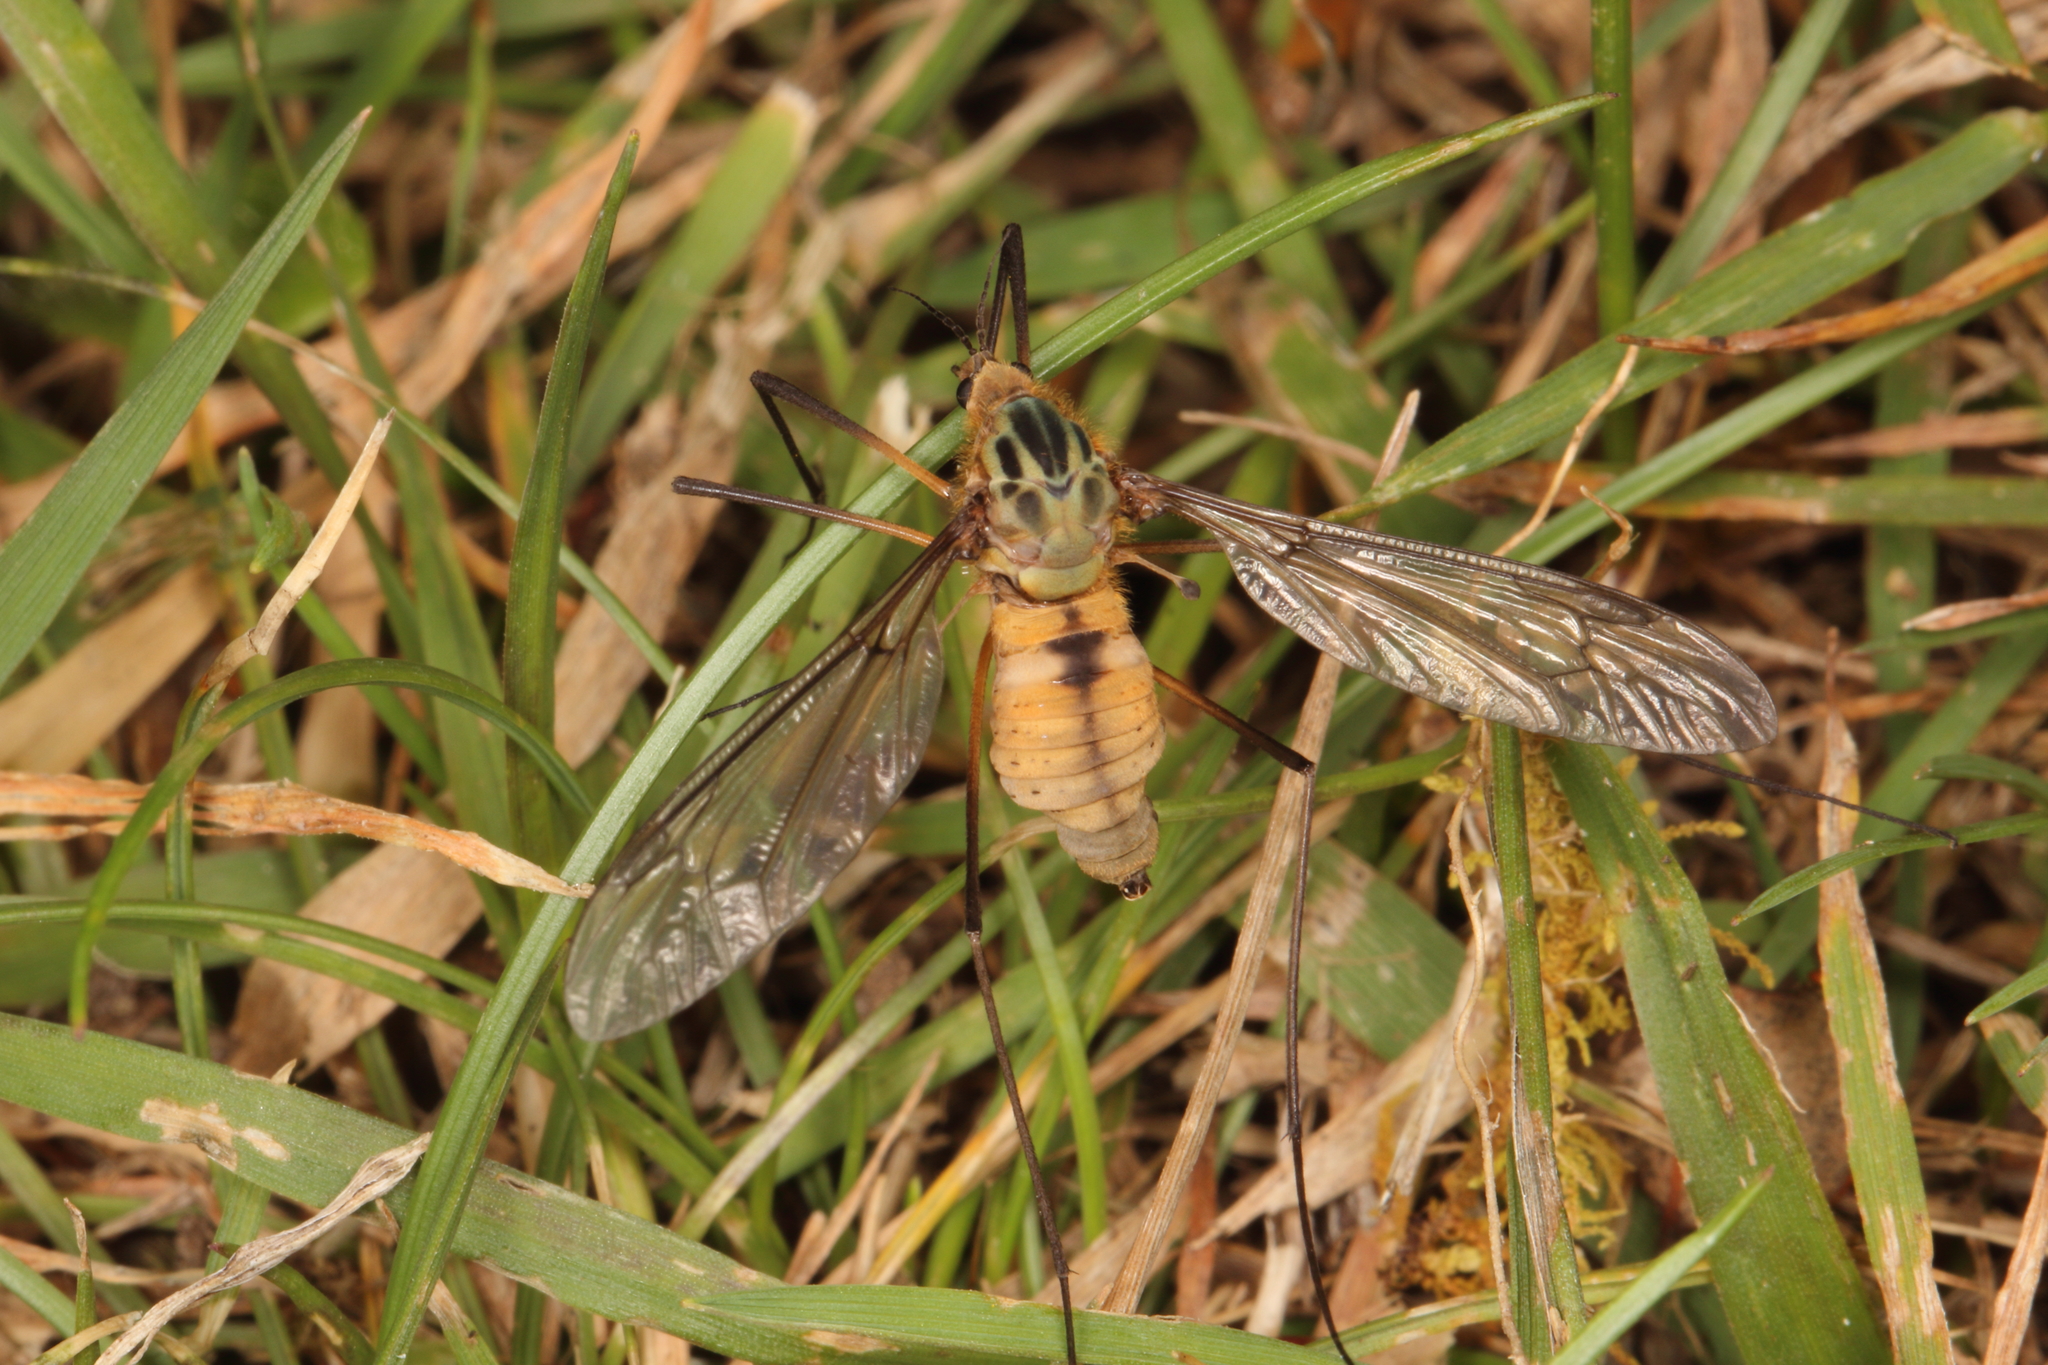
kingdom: Animalia
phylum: Arthropoda
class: Insecta
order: Diptera
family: Tipulidae
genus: Leptotarsus
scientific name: Leptotarsus vulpinus
